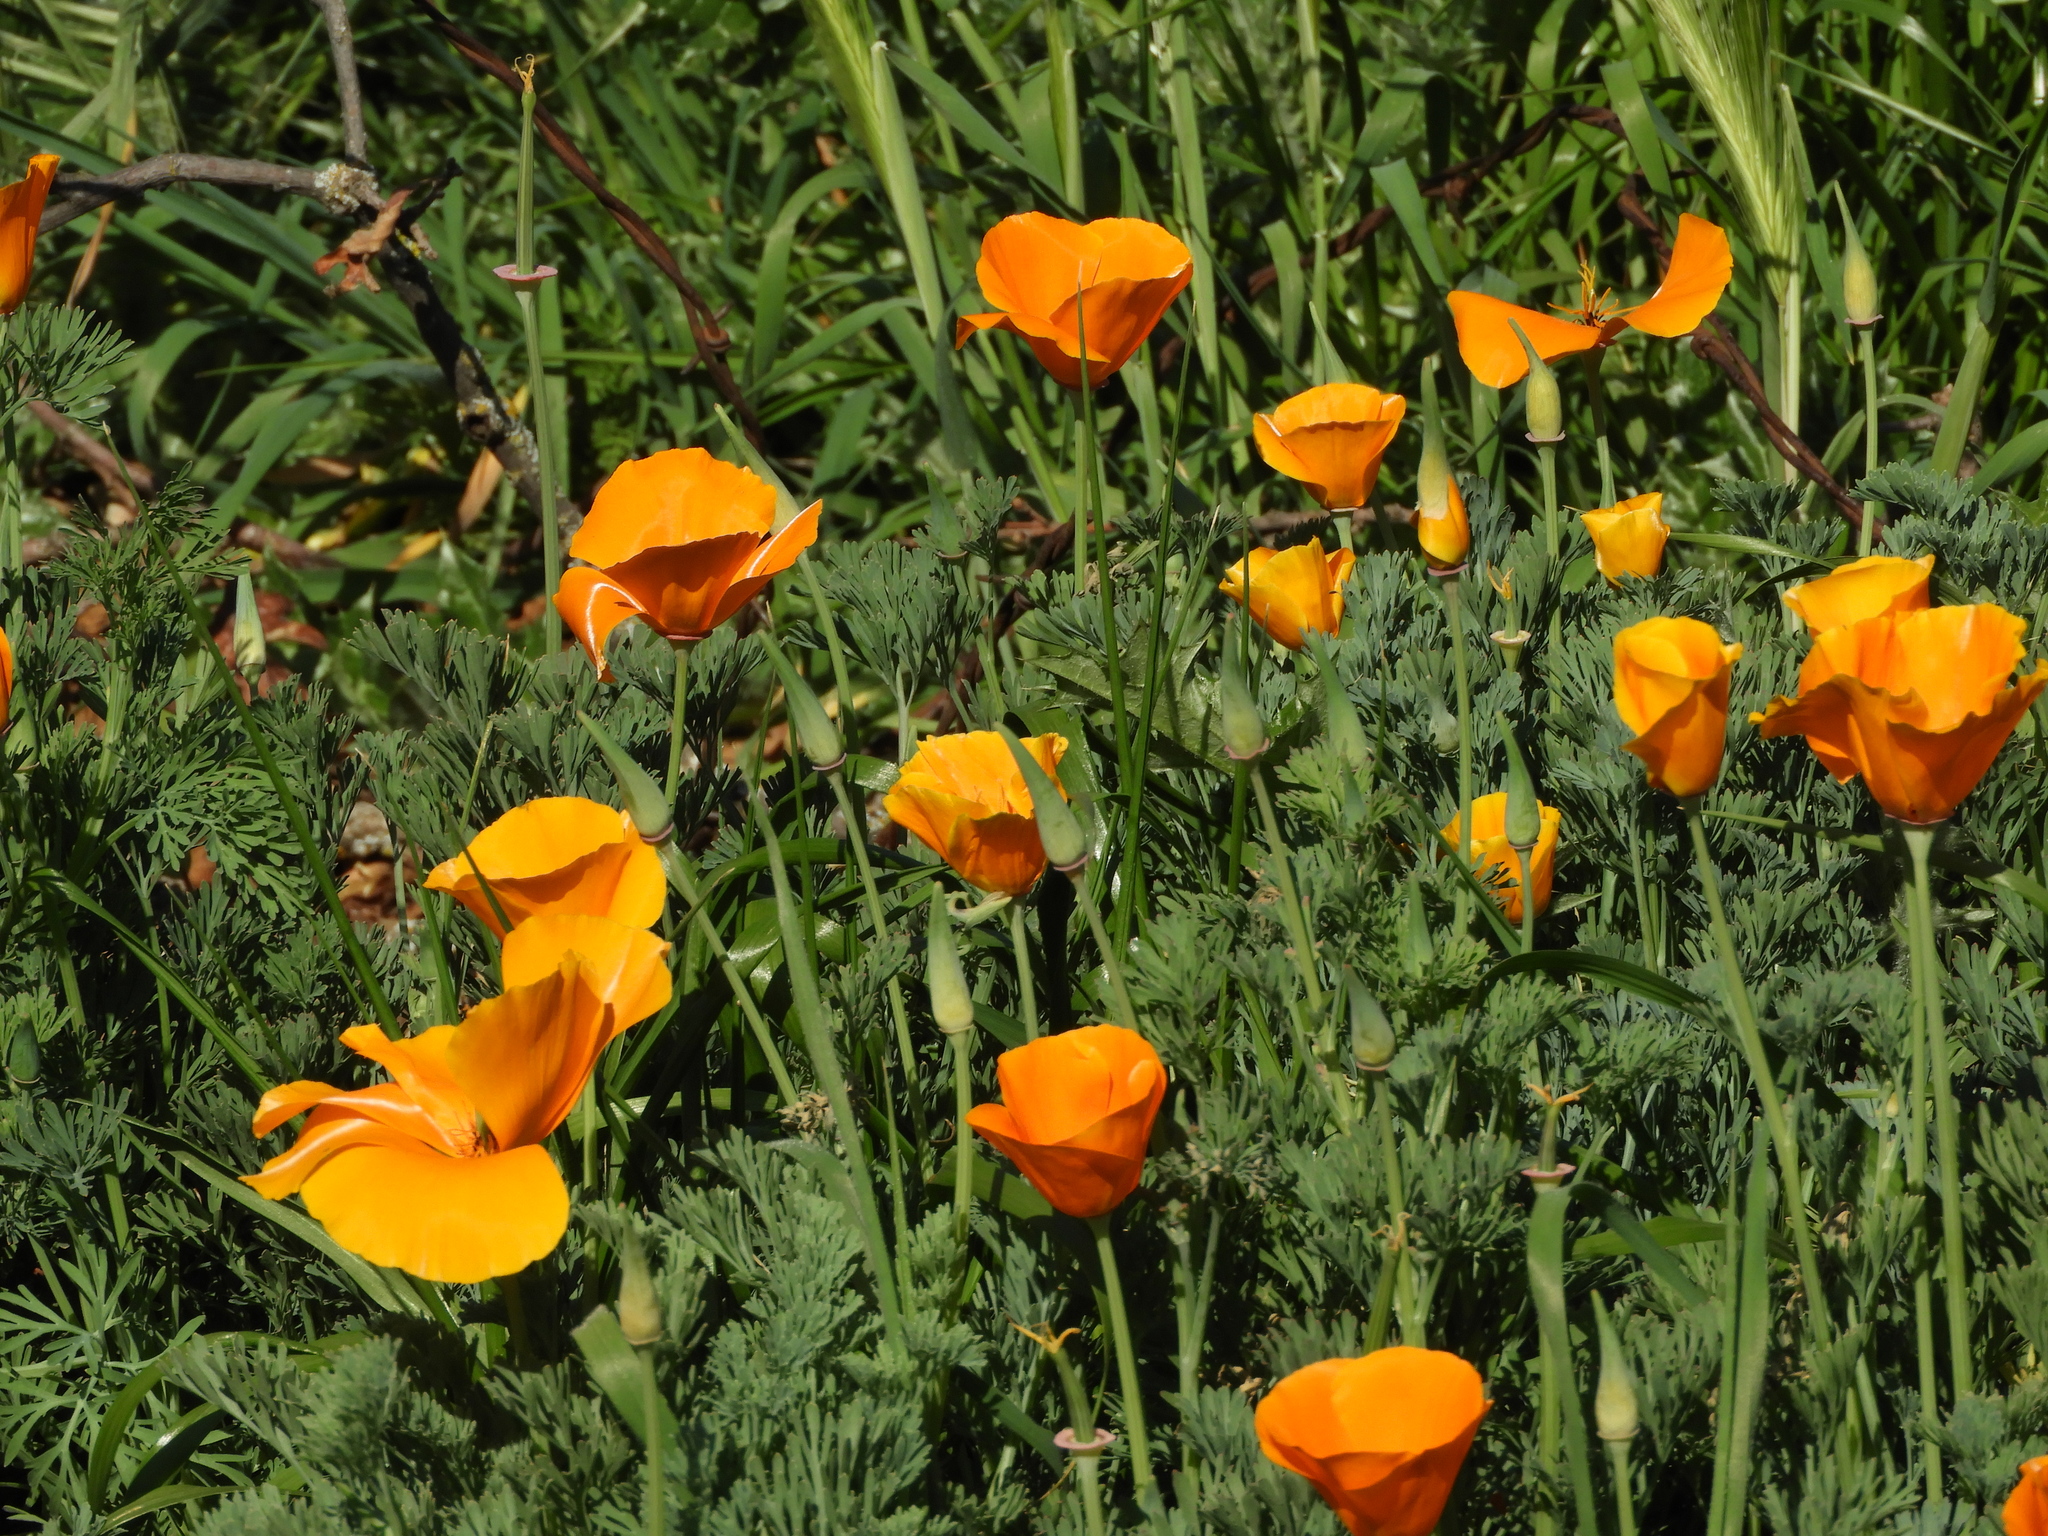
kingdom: Plantae
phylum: Tracheophyta
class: Magnoliopsida
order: Ranunculales
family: Papaveraceae
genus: Eschscholzia
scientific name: Eschscholzia californica
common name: California poppy
